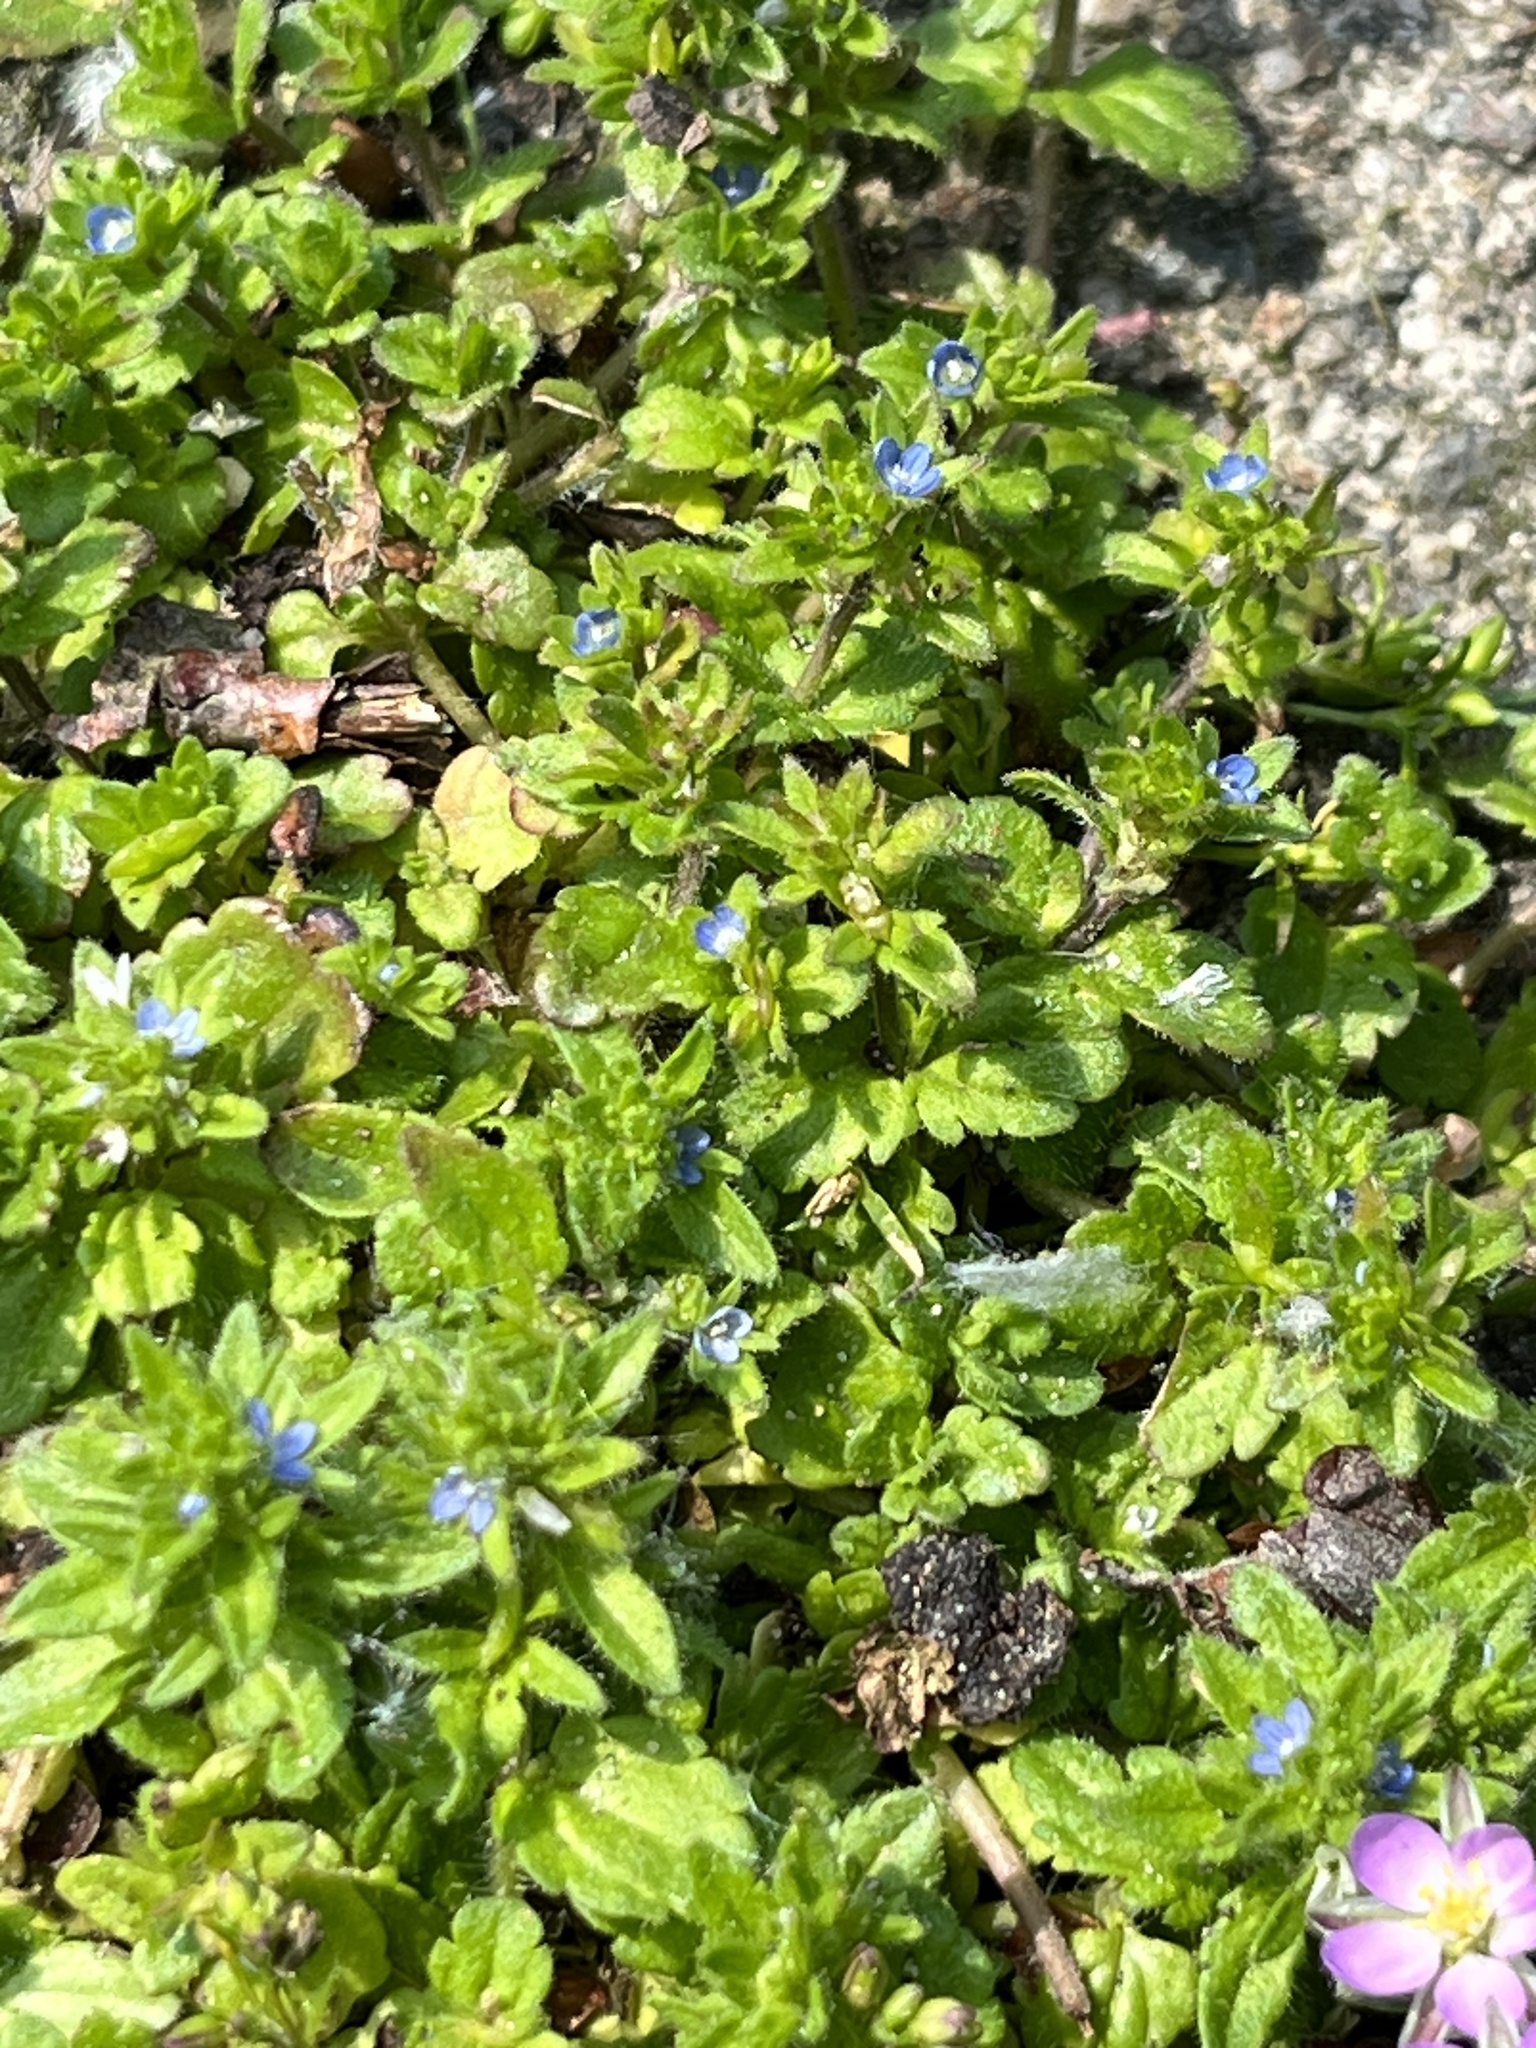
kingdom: Plantae
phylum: Tracheophyta
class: Magnoliopsida
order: Lamiales
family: Plantaginaceae
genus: Veronica
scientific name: Veronica arvensis
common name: Corn speedwell
